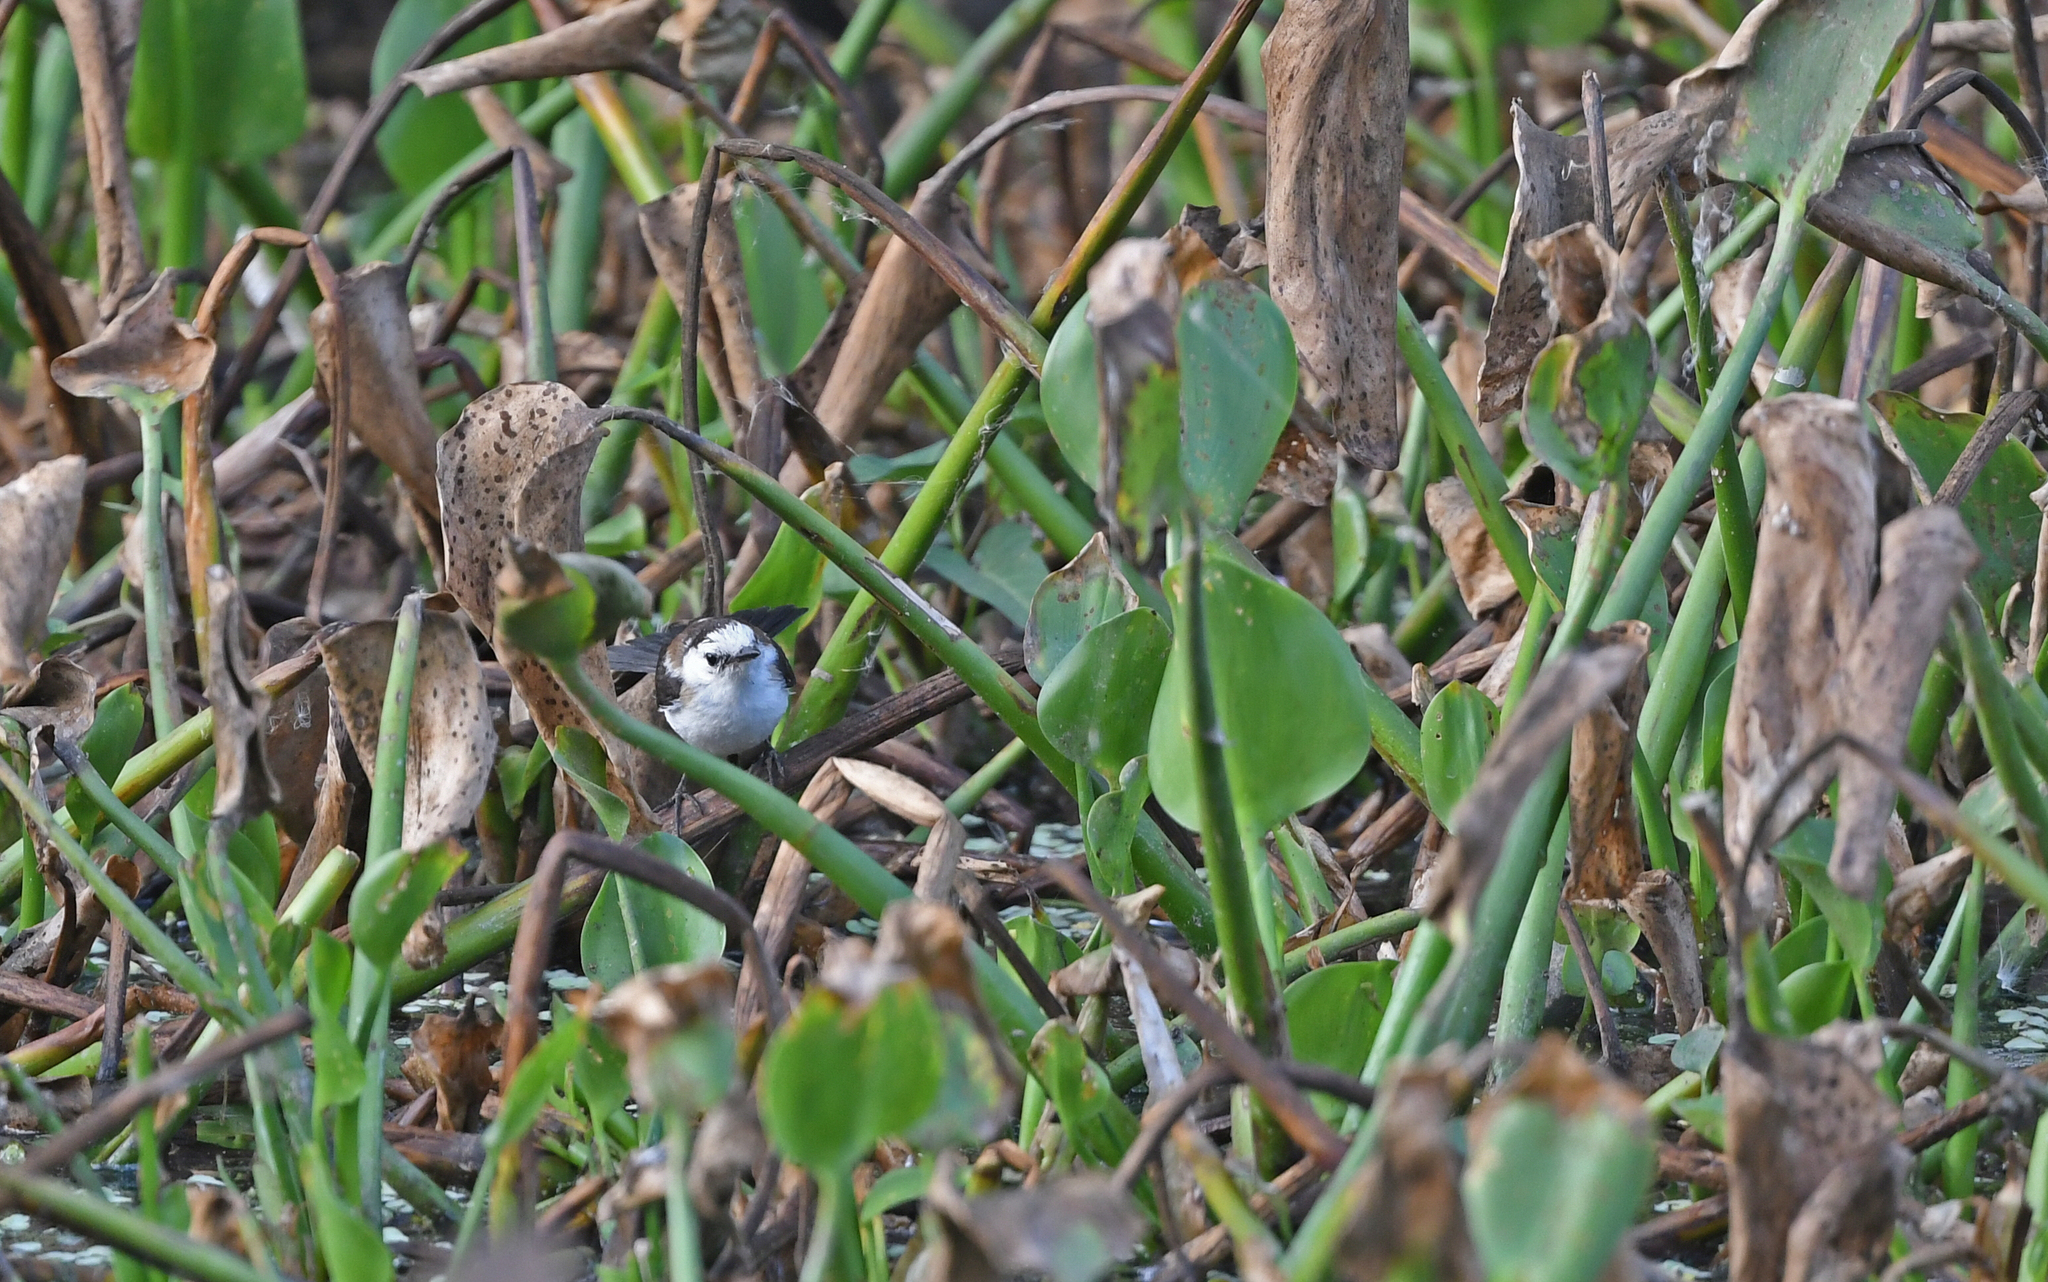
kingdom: Animalia
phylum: Chordata
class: Aves
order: Passeriformes
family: Tyrannidae
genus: Fluvicola
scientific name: Fluvicola pica
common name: Pied water-tyrant
